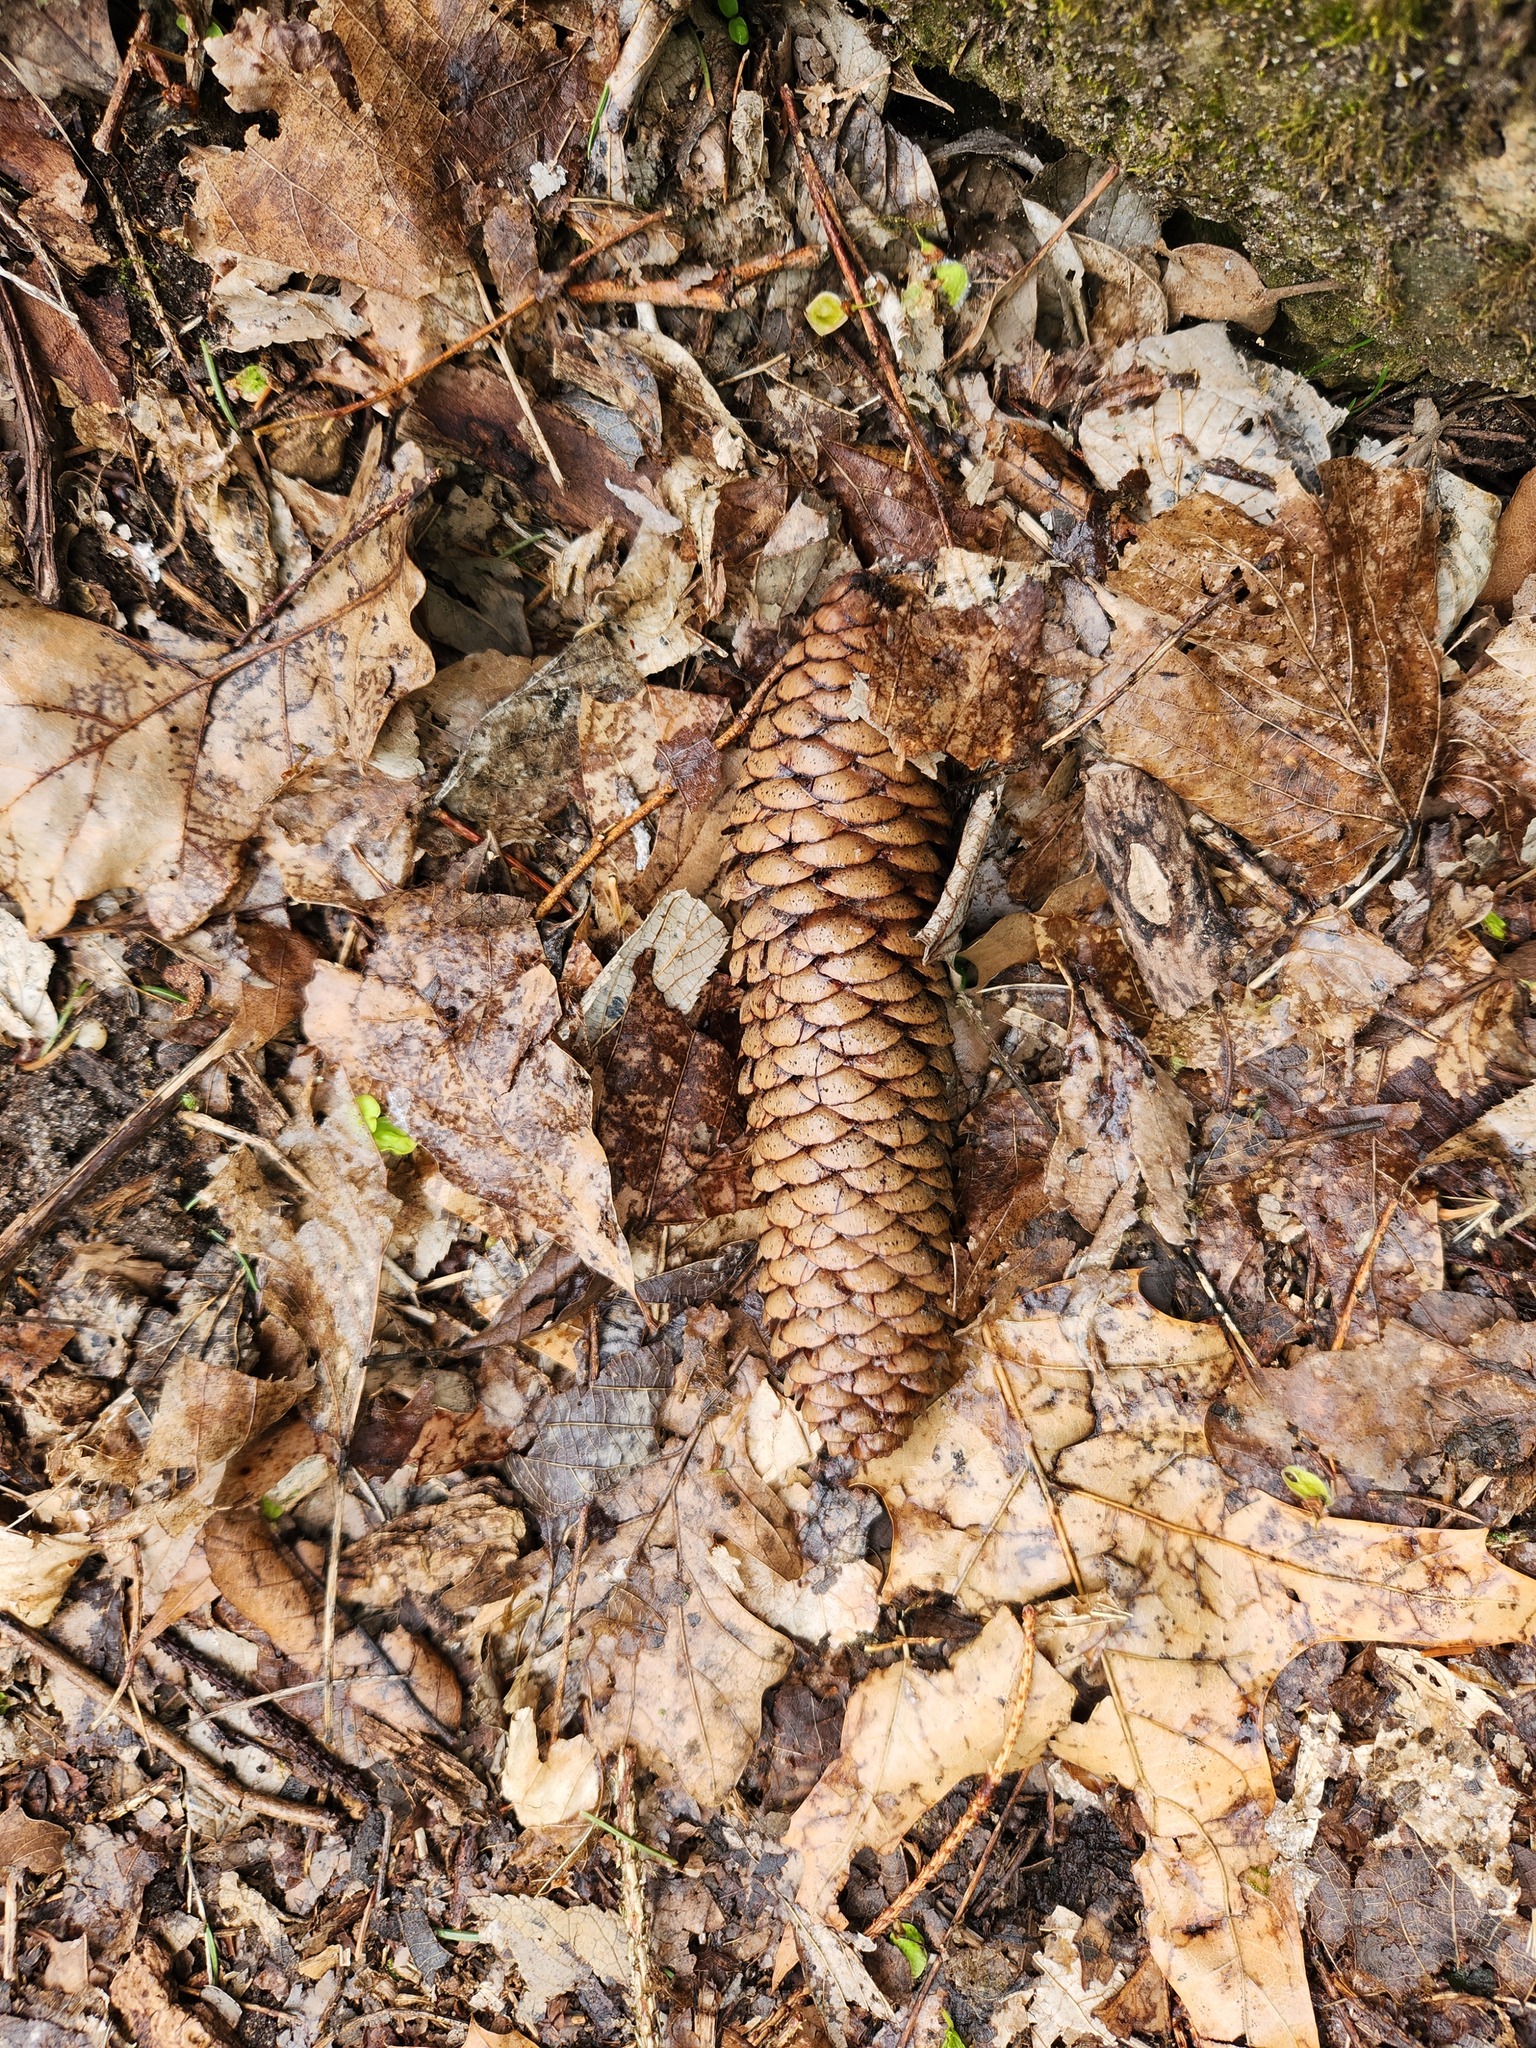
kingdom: Plantae
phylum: Tracheophyta
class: Magnoliopsida
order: Boraginales
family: Boraginaceae
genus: Mertensia
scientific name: Mertensia virginica
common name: Virginia bluebells
